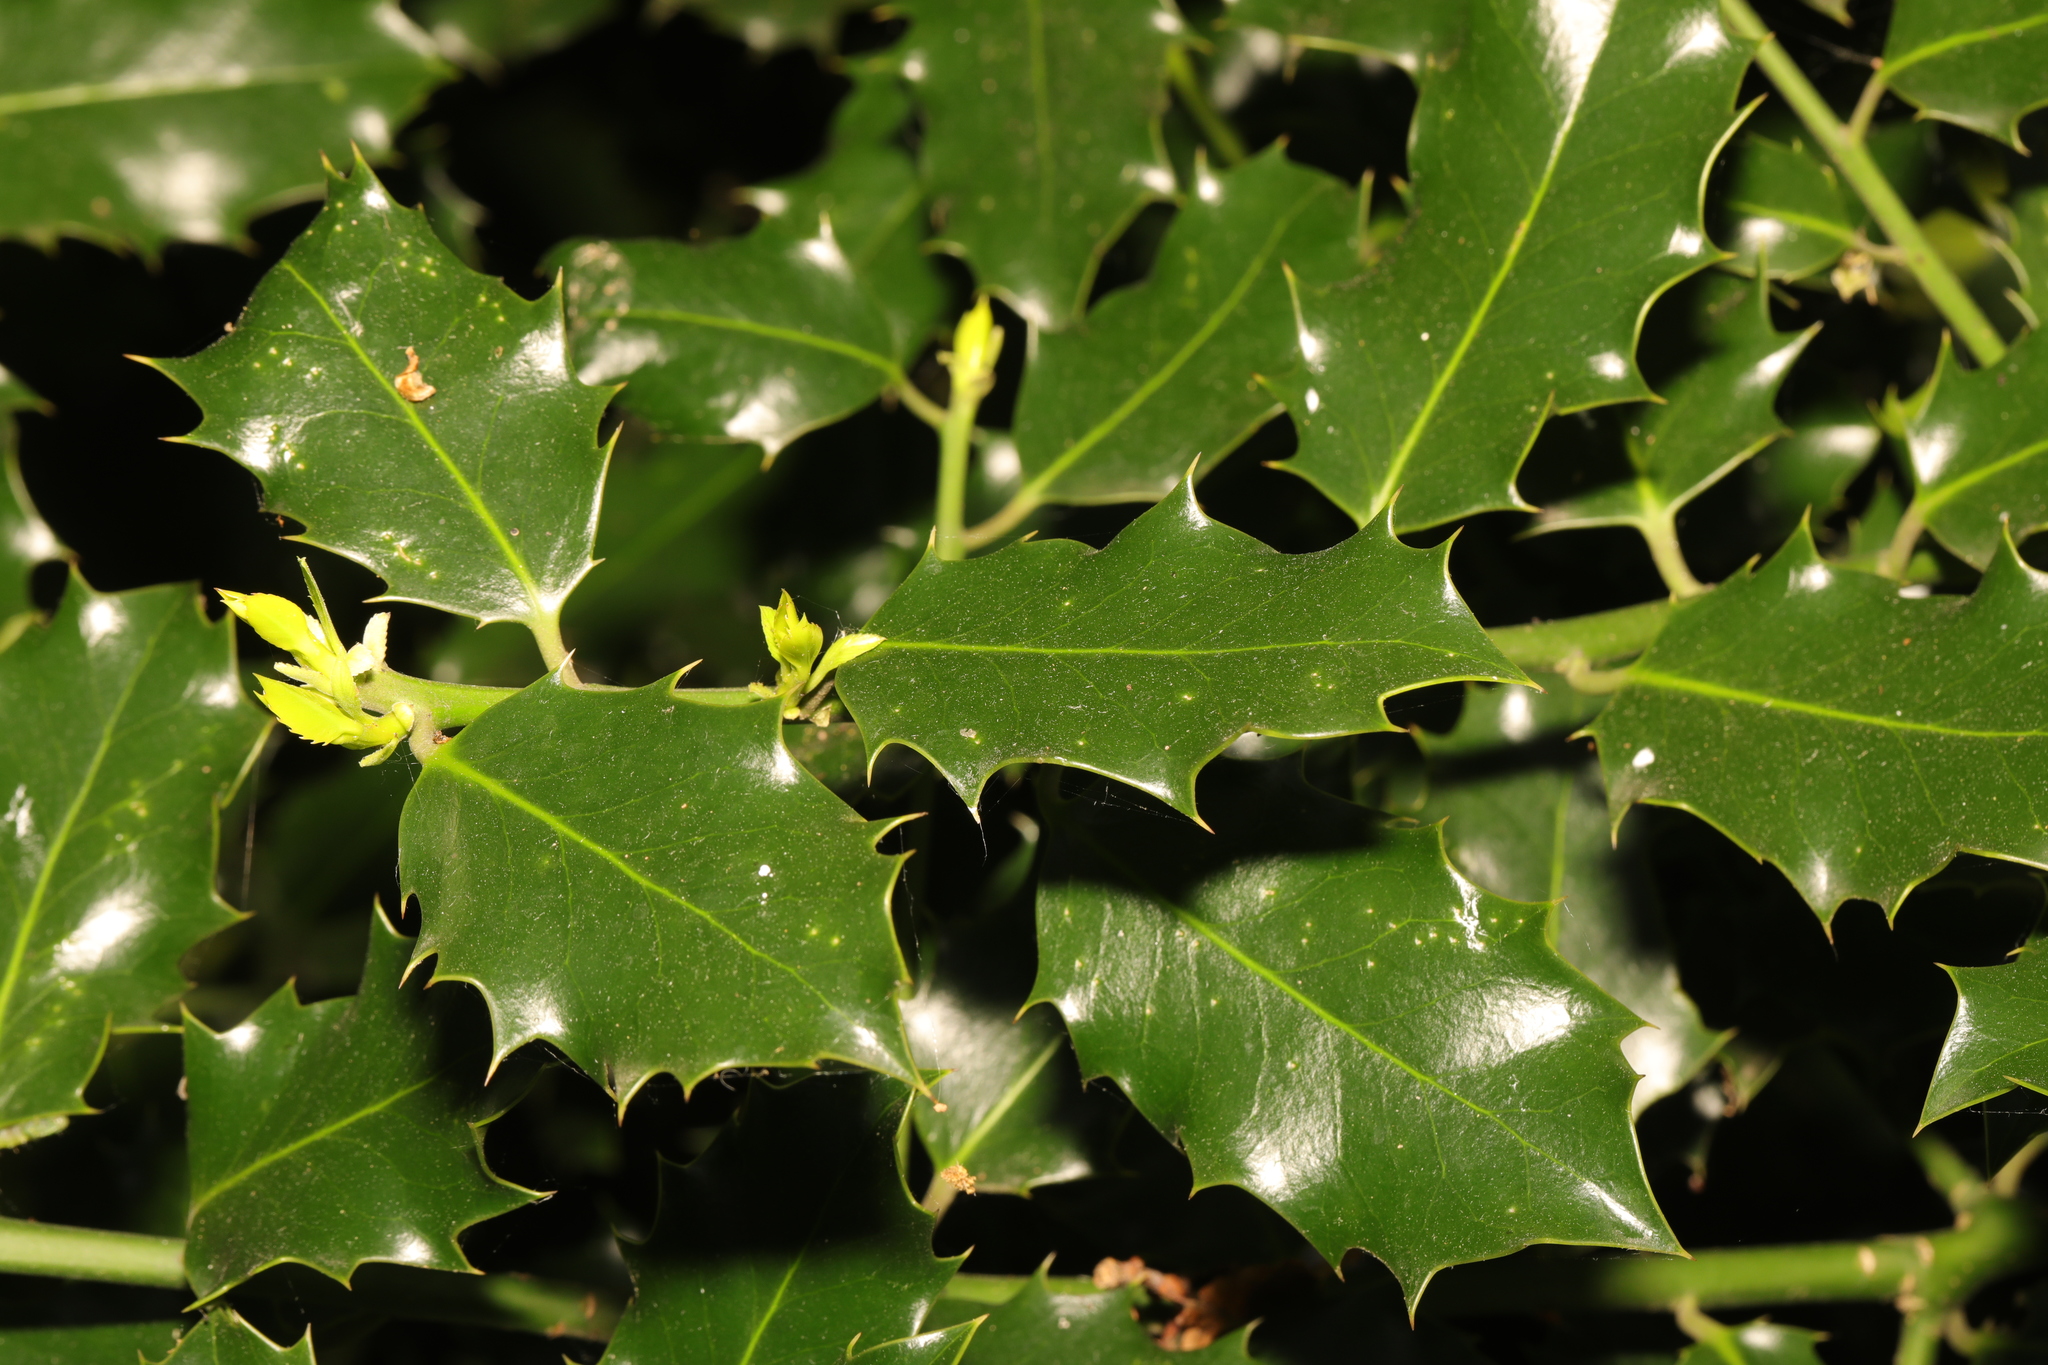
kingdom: Plantae
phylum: Tracheophyta
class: Magnoliopsida
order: Aquifoliales
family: Aquifoliaceae
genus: Ilex
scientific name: Ilex aquifolium
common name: English holly
